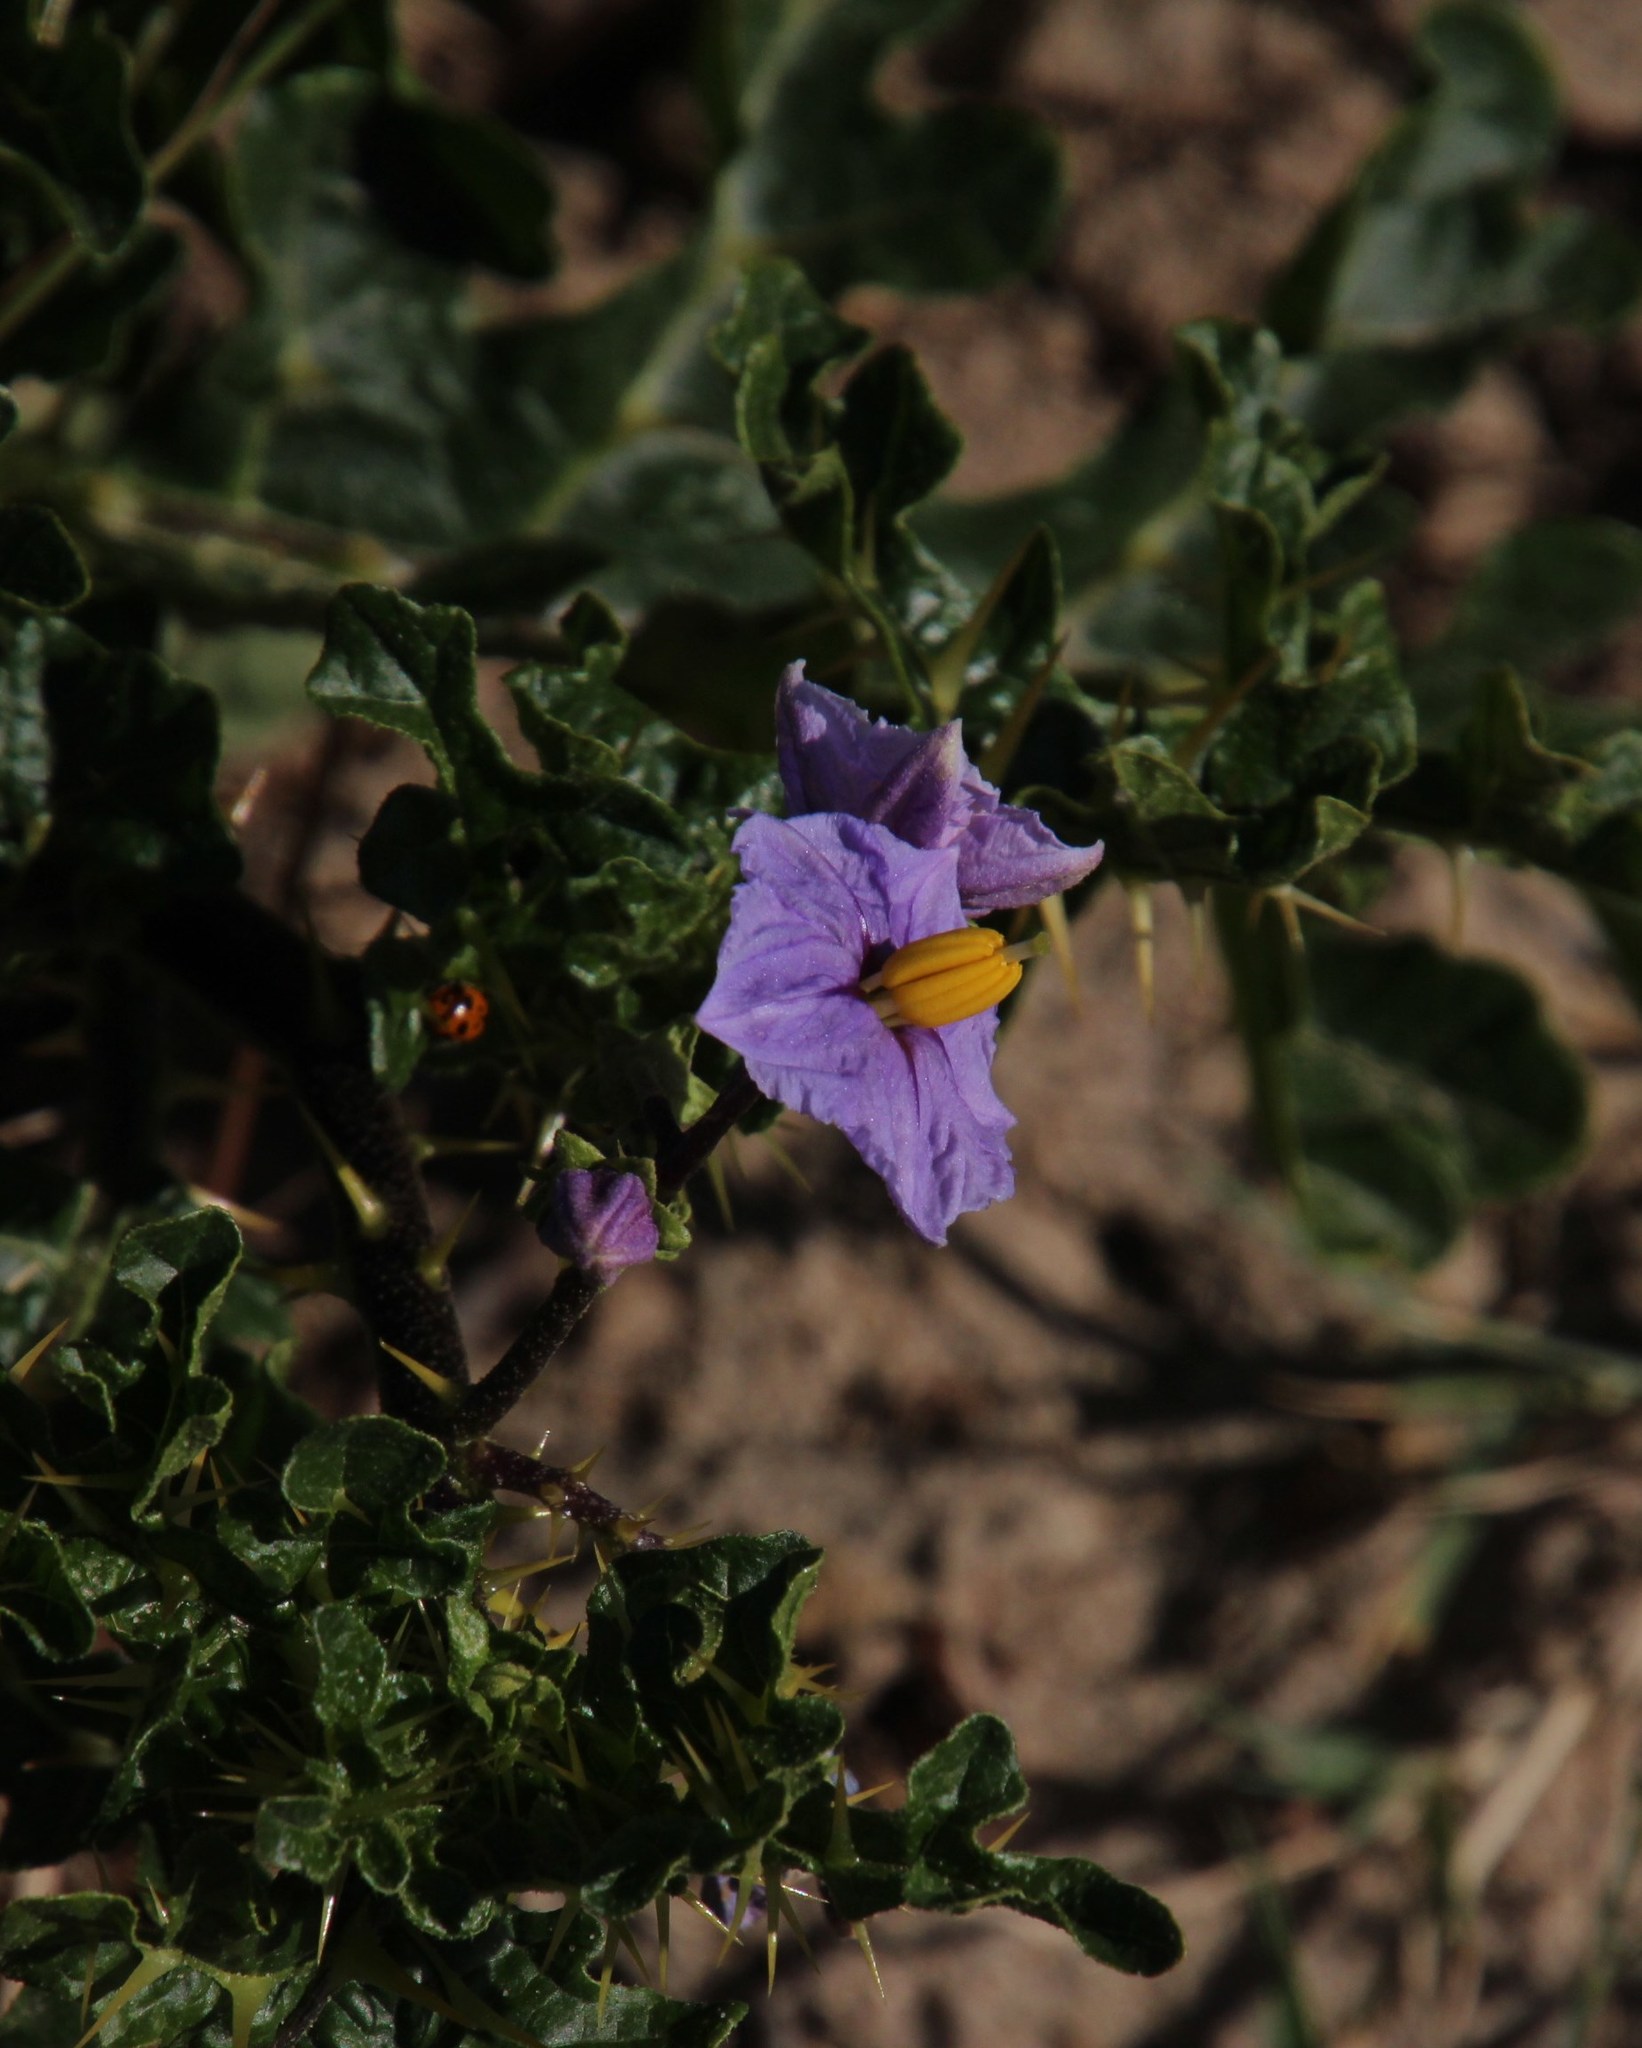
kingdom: Plantae
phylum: Tracheophyta
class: Magnoliopsida
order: Solanales
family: Solanaceae
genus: Solanum
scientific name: Solanum linnaeanum
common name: Nightshade
